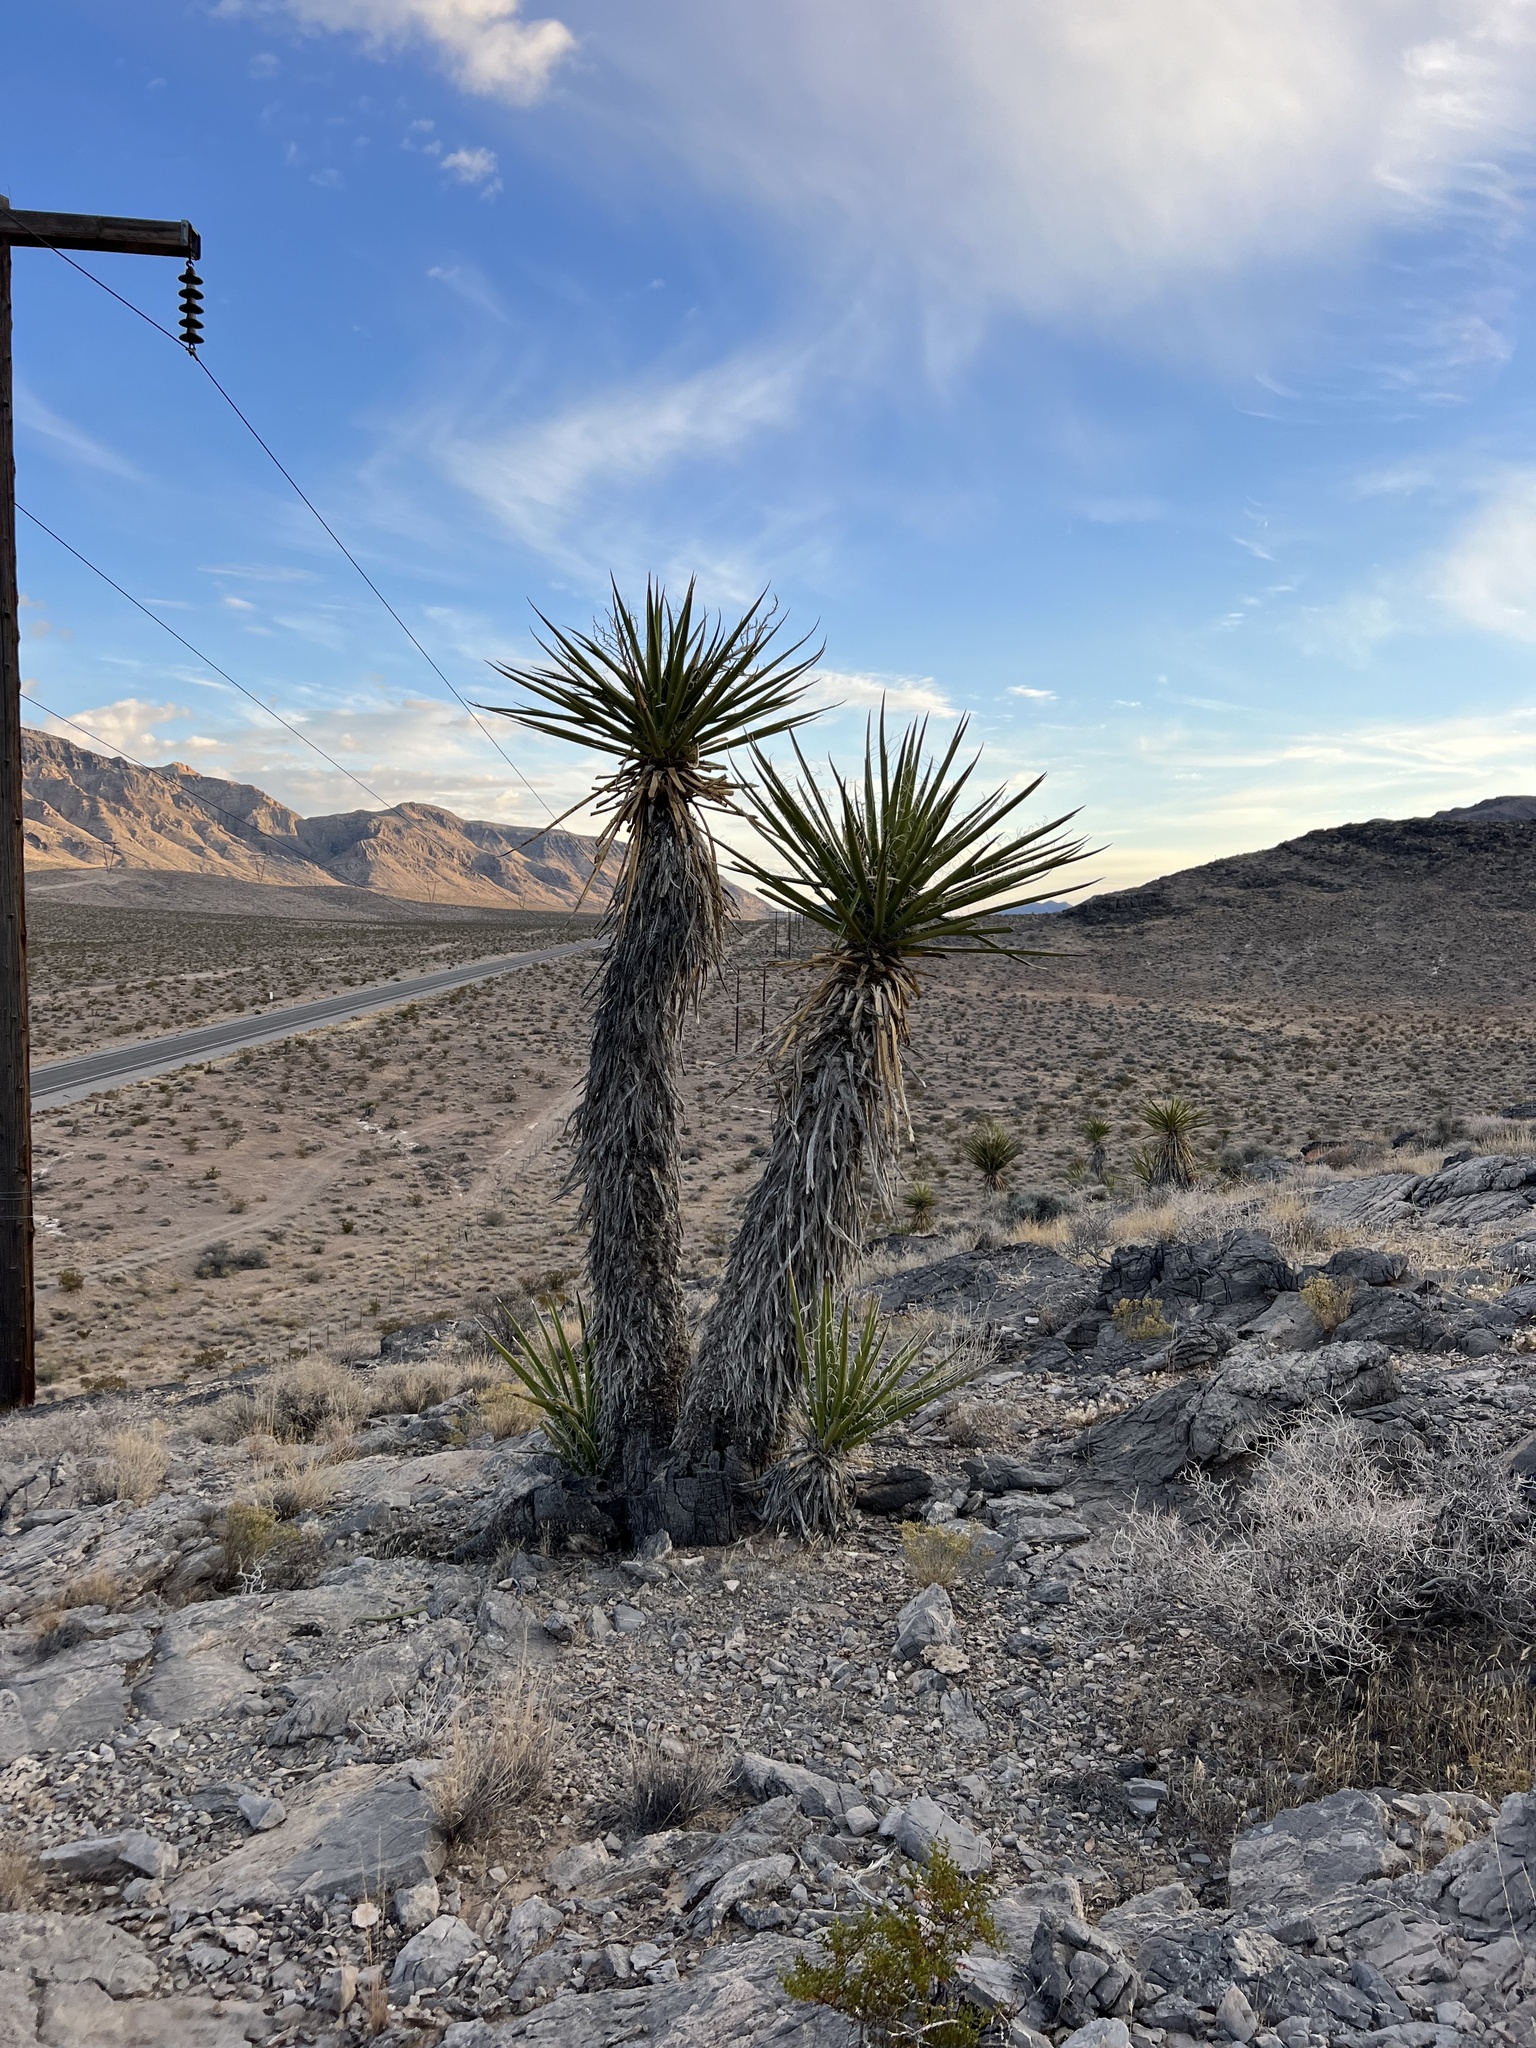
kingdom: Plantae
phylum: Tracheophyta
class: Liliopsida
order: Asparagales
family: Asparagaceae
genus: Yucca
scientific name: Yucca schidigera
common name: Mojave yucca
